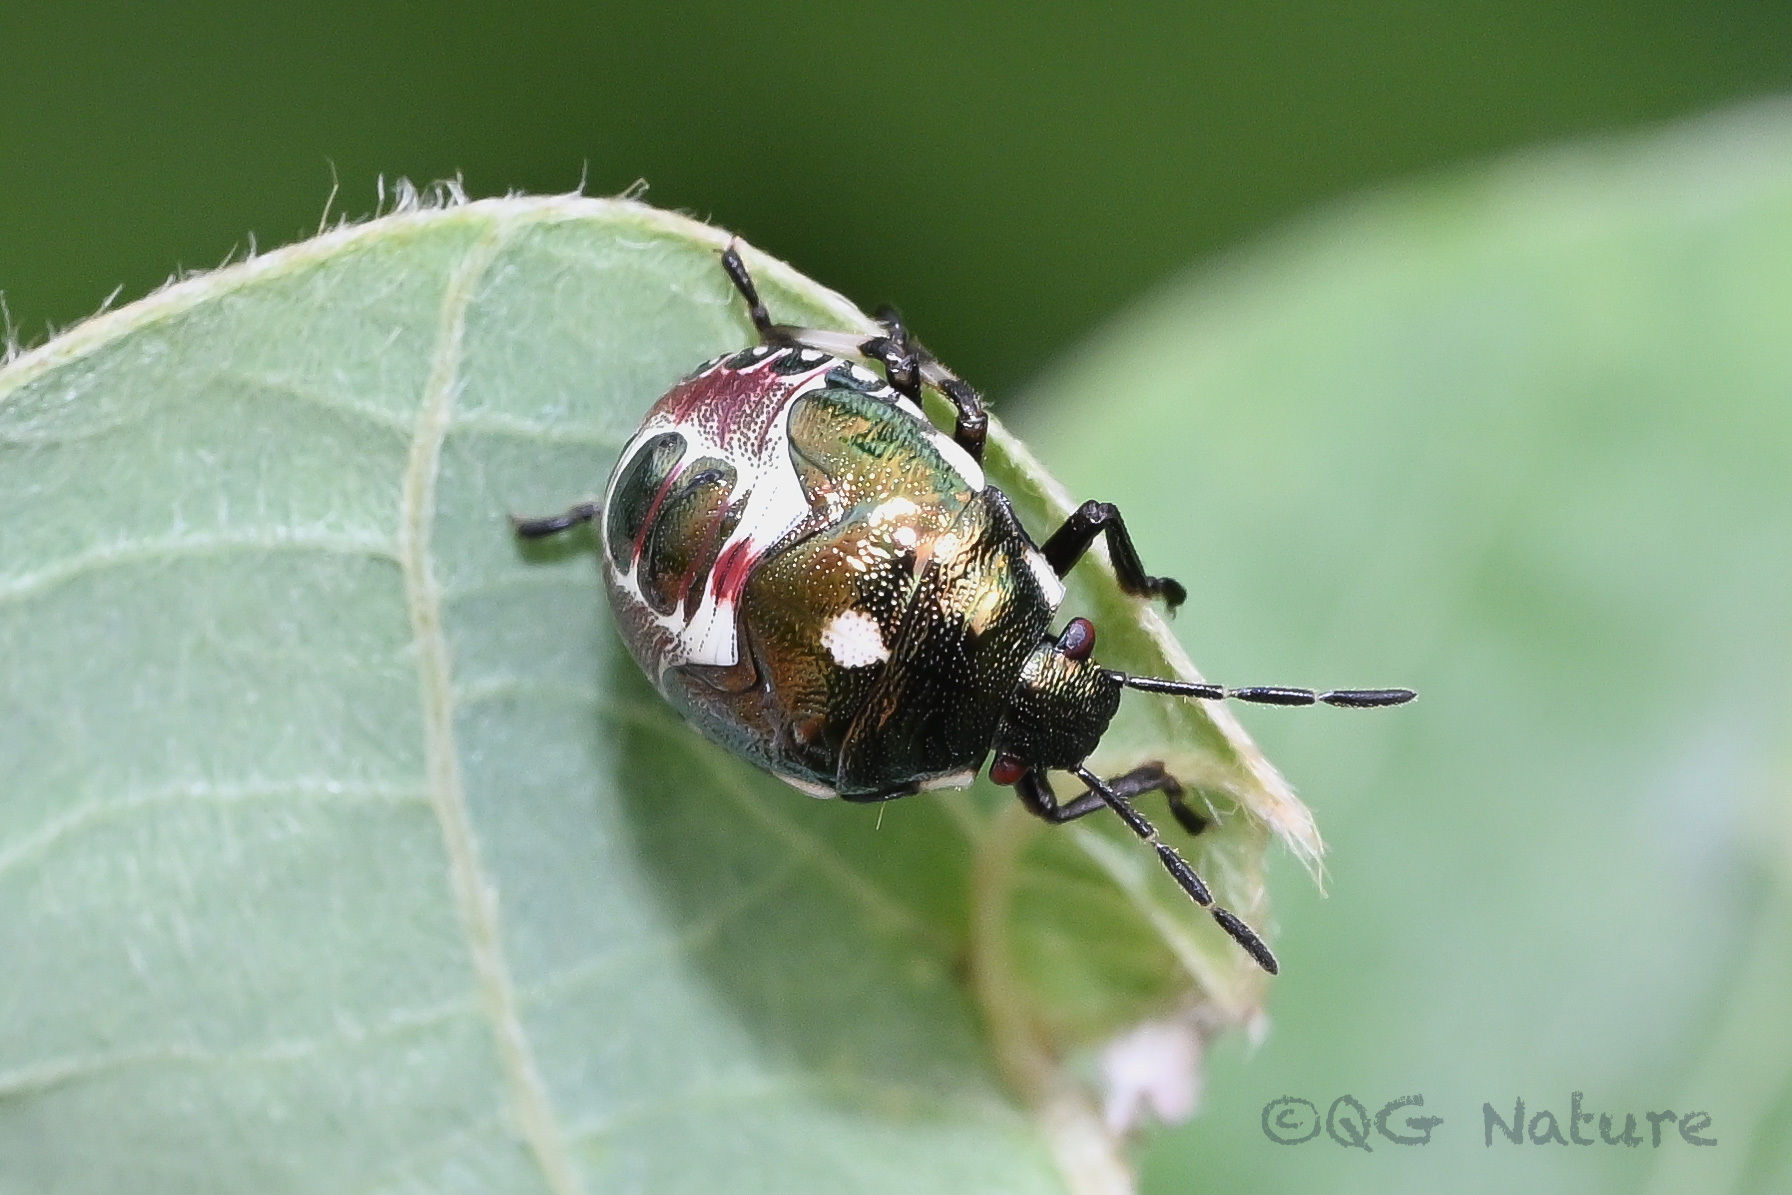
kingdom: Animalia
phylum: Arthropoda
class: Insecta
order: Hemiptera
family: Pentatomidae
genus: Menida
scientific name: Menida violacea
